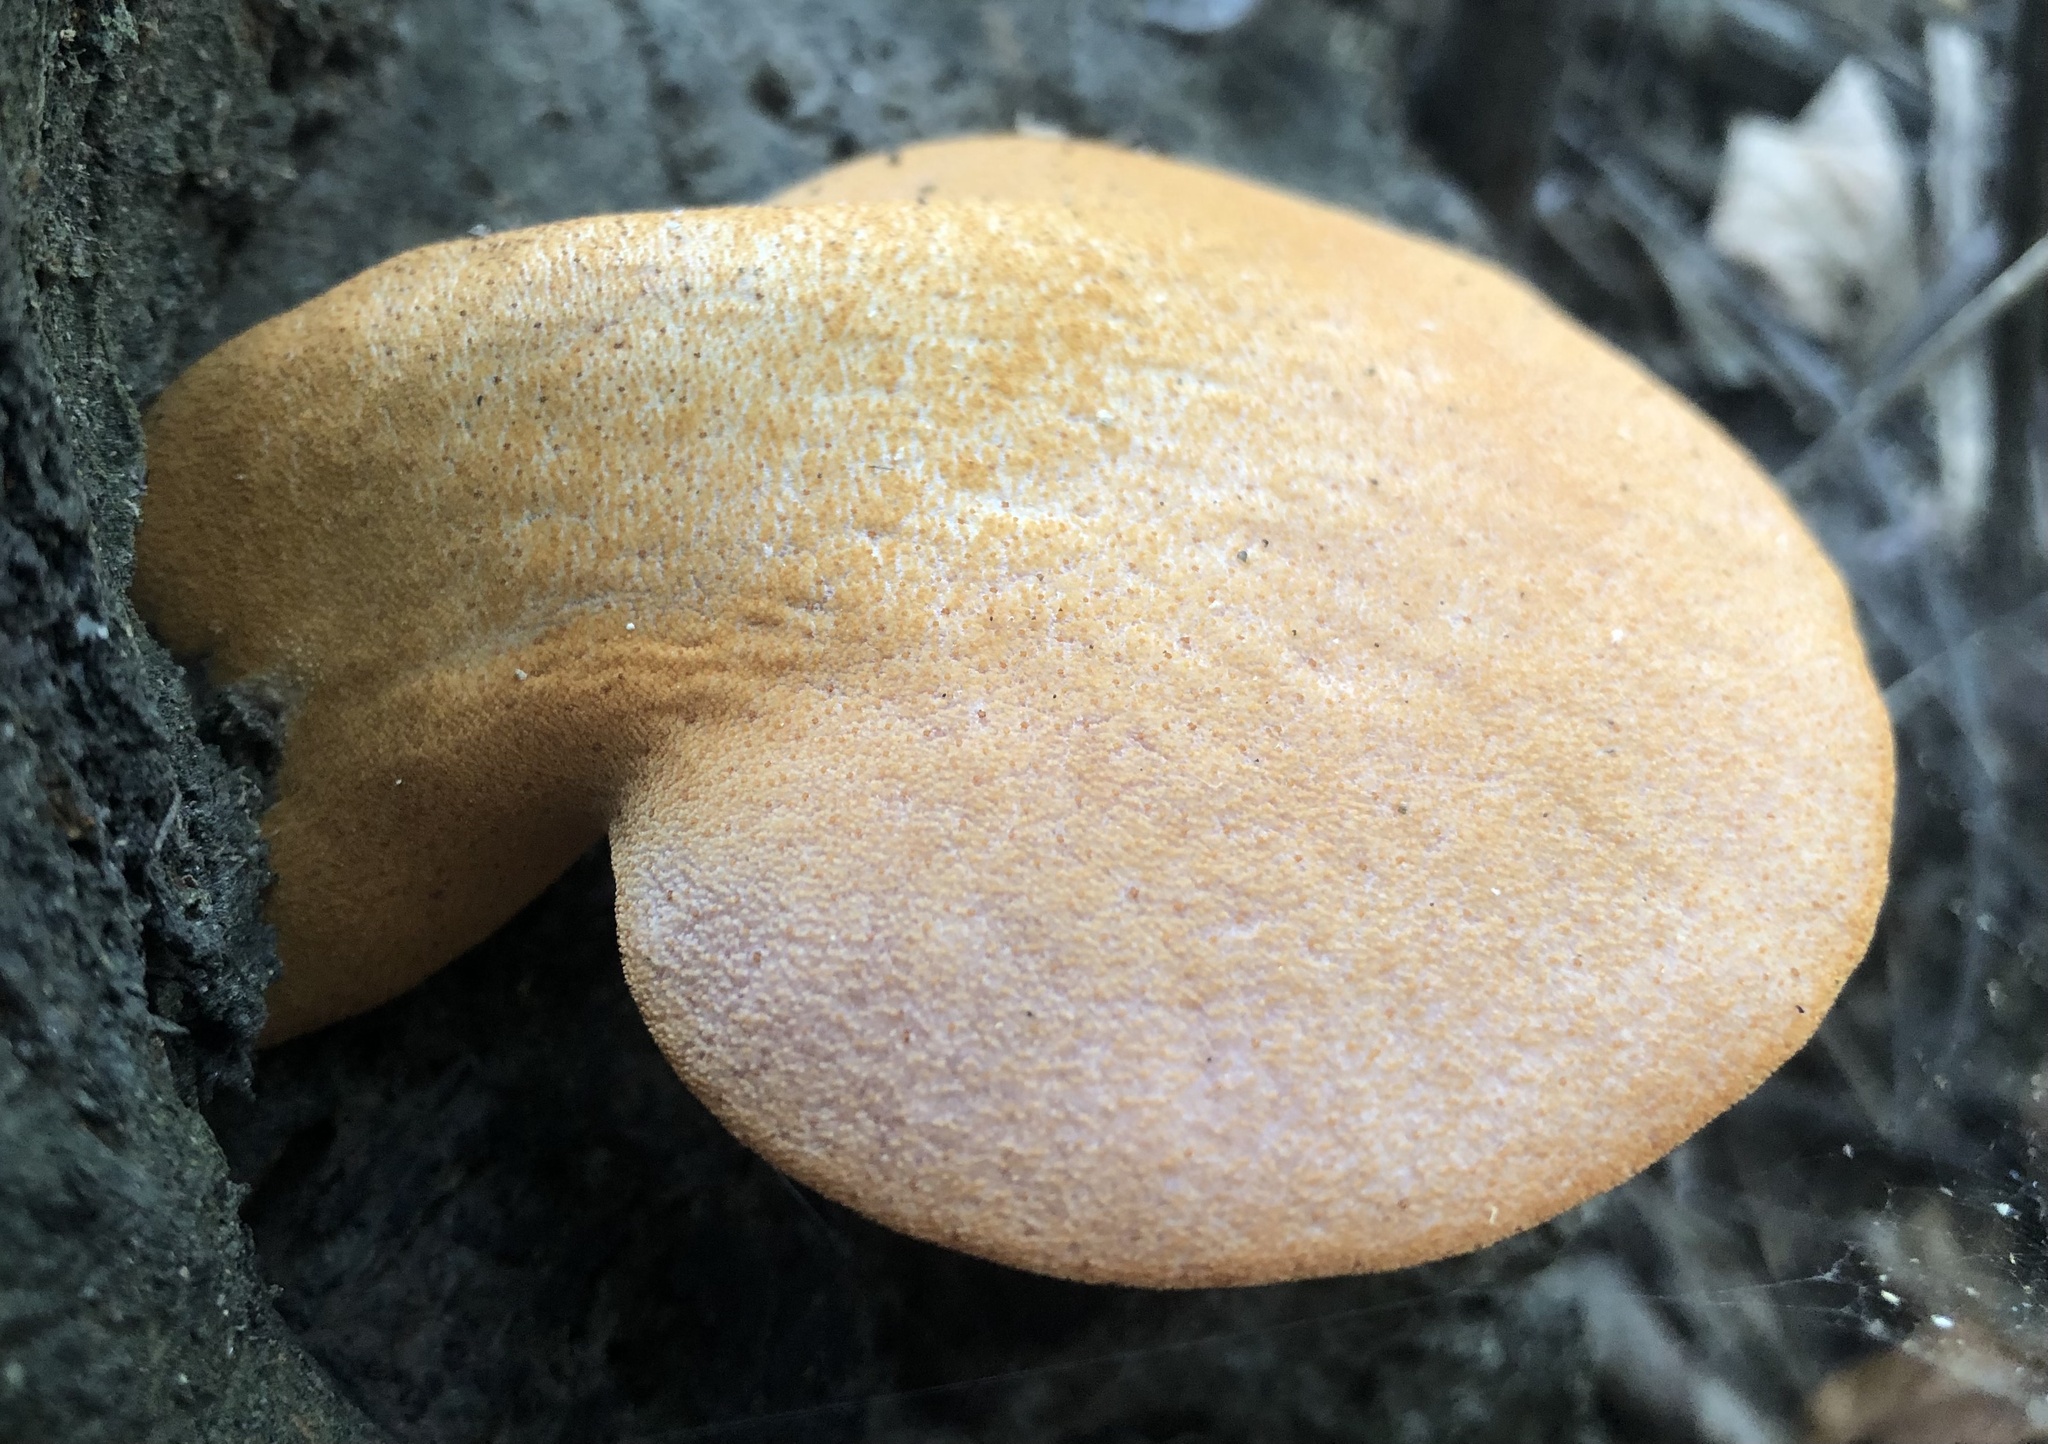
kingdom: Fungi
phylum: Basidiomycota
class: Agaricomycetes
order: Agaricales
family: Fistulinaceae
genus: Fistulina
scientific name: Fistulina hepatica
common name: Beef-steak fungus
